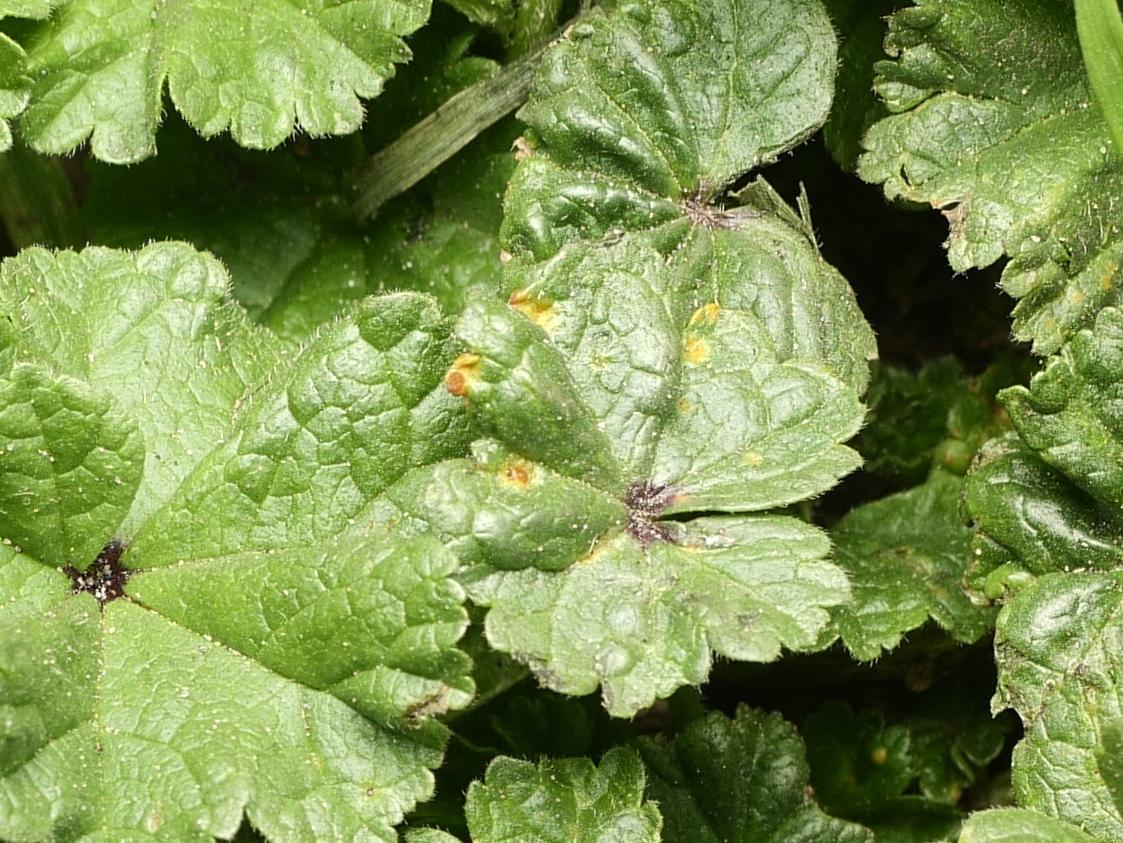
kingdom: Fungi
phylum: Basidiomycota
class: Pucciniomycetes
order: Pucciniales
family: Pucciniaceae
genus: Puccinia
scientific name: Puccinia malvacearum
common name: Hollyhock rust
